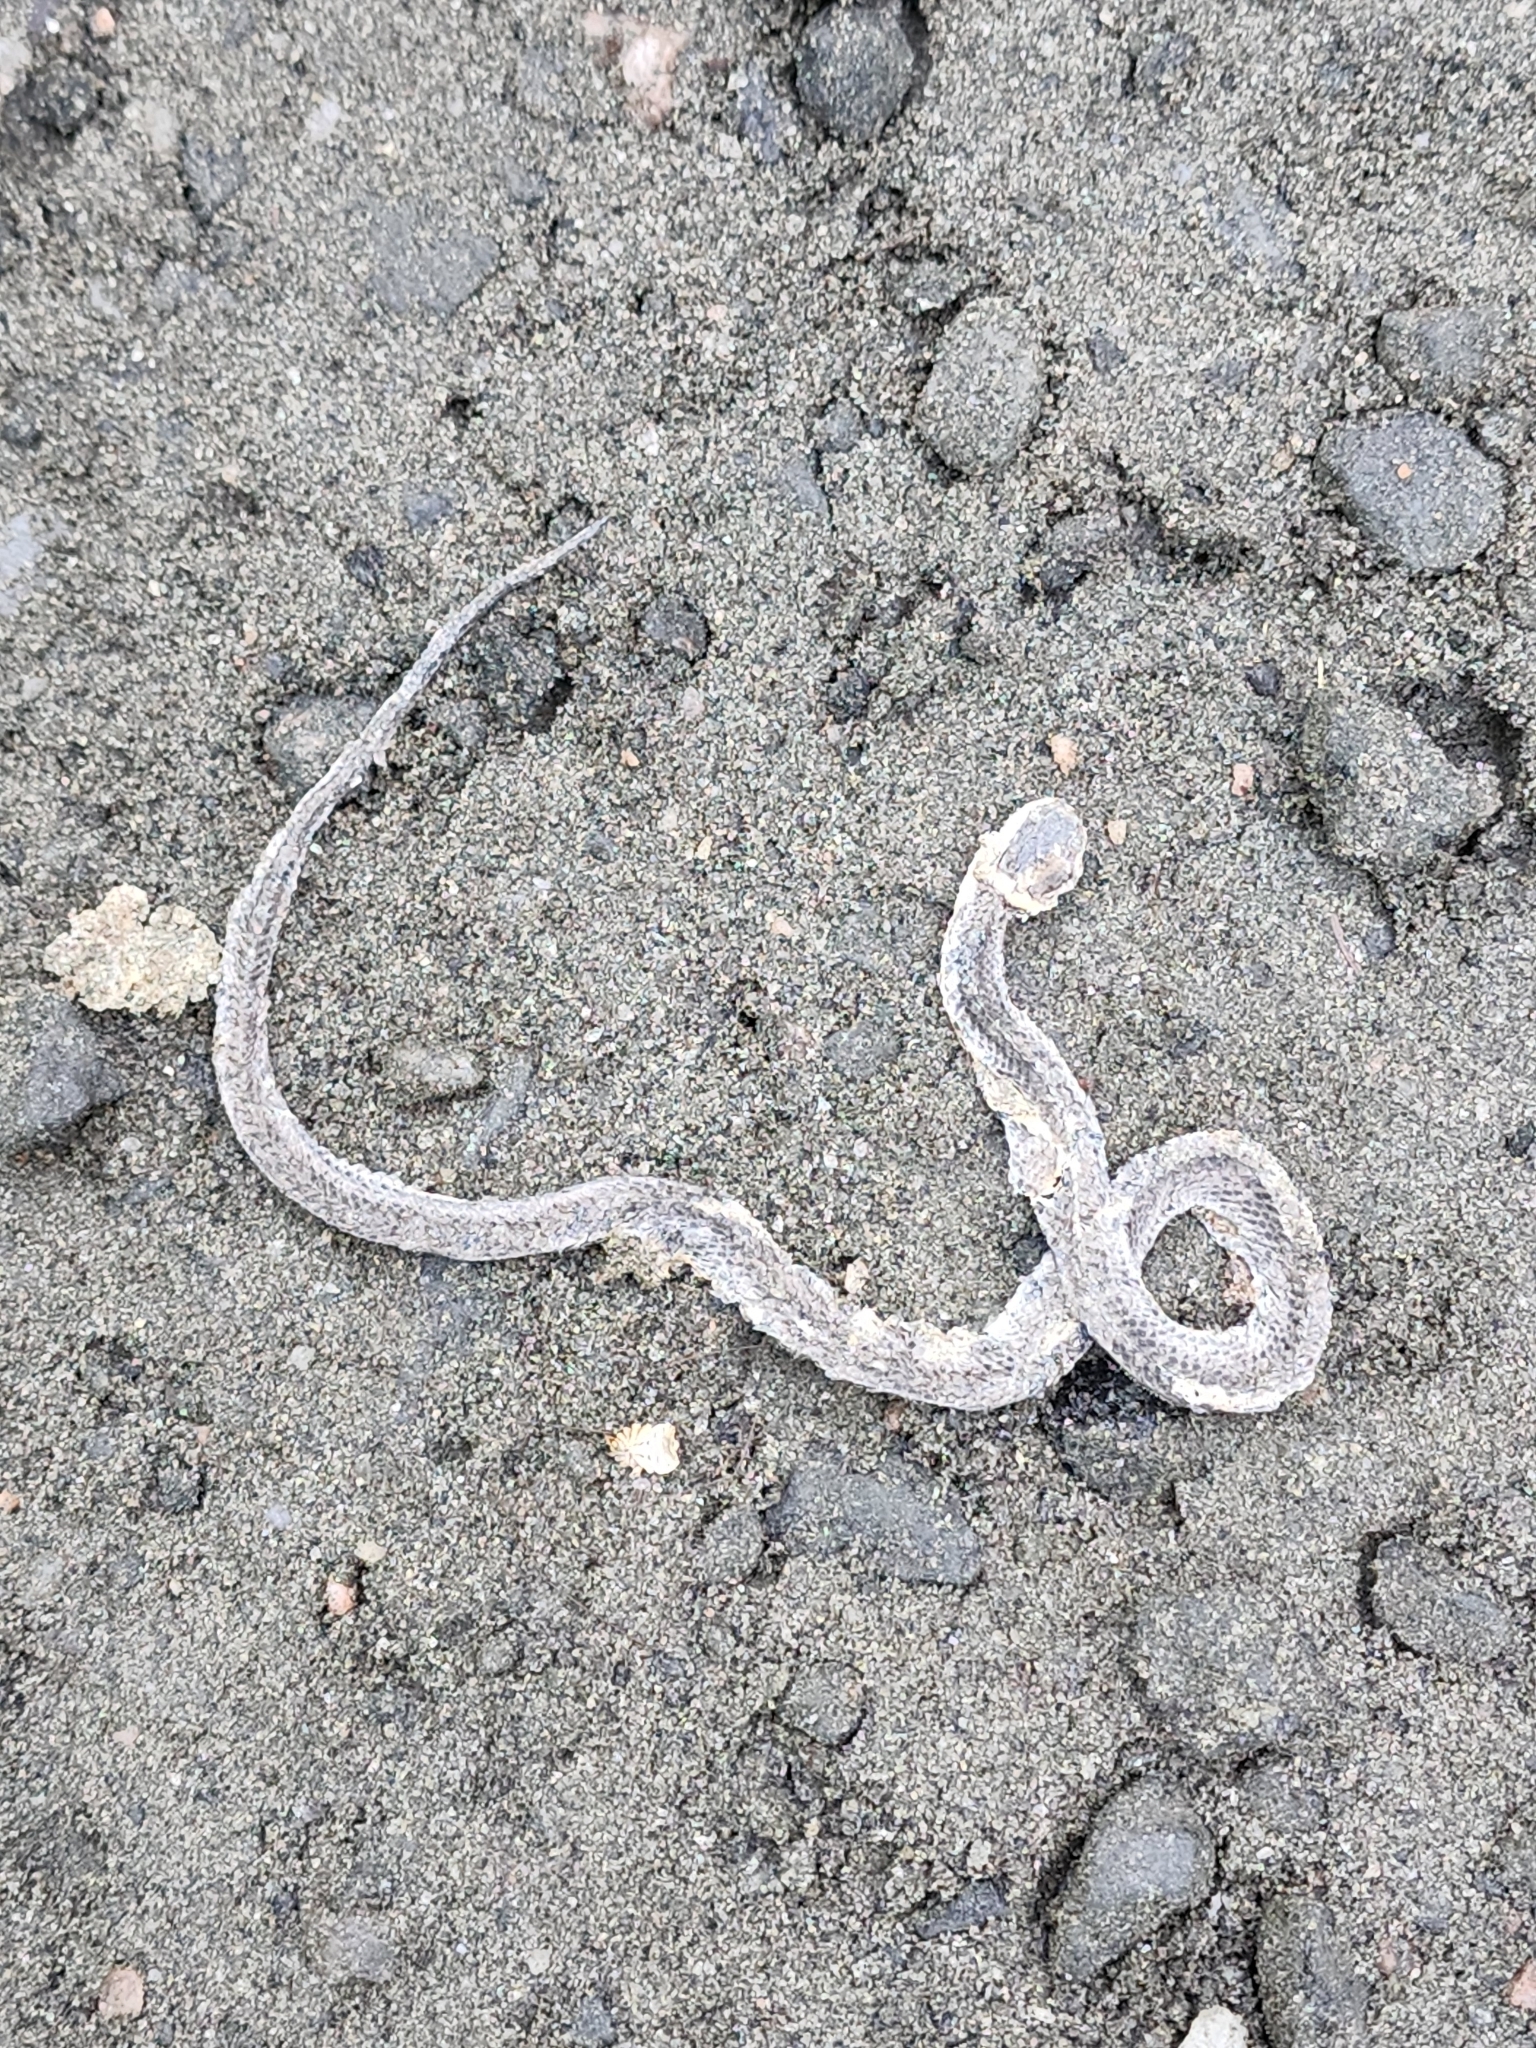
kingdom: Animalia
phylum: Chordata
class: Squamata
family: Colubridae
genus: Storeria
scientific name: Storeria occipitomaculata
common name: Redbelly snake
